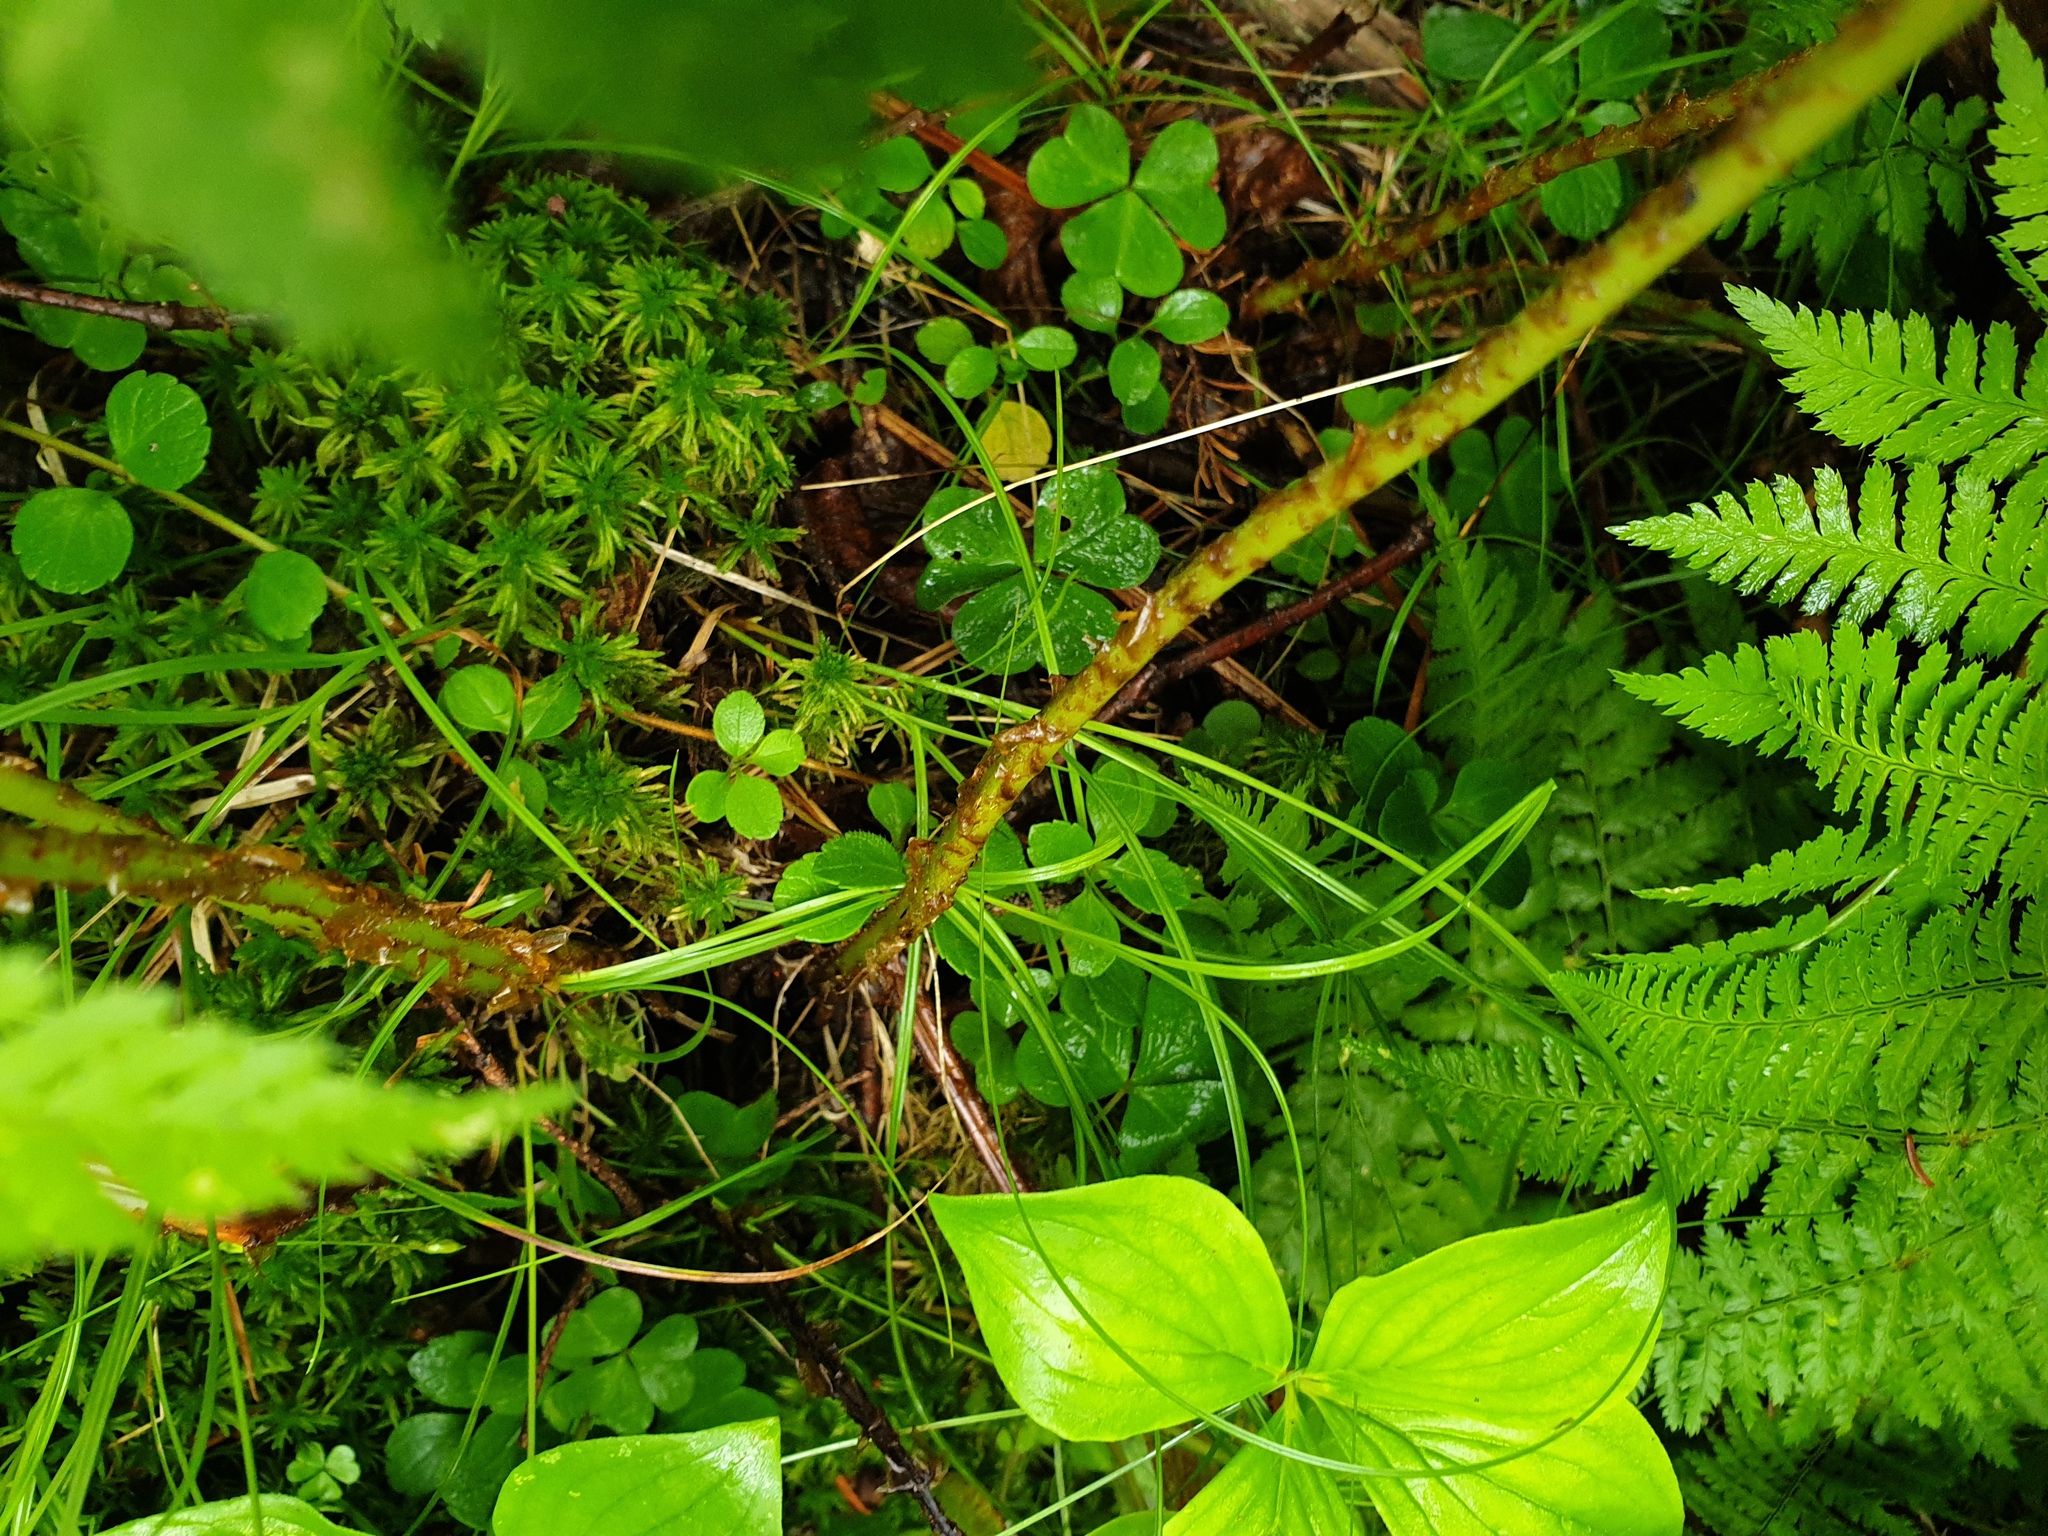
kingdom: Plantae
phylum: Tracheophyta
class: Magnoliopsida
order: Dipsacales
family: Caprifoliaceae
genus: Linnaea
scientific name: Linnaea borealis
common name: Twinflower
